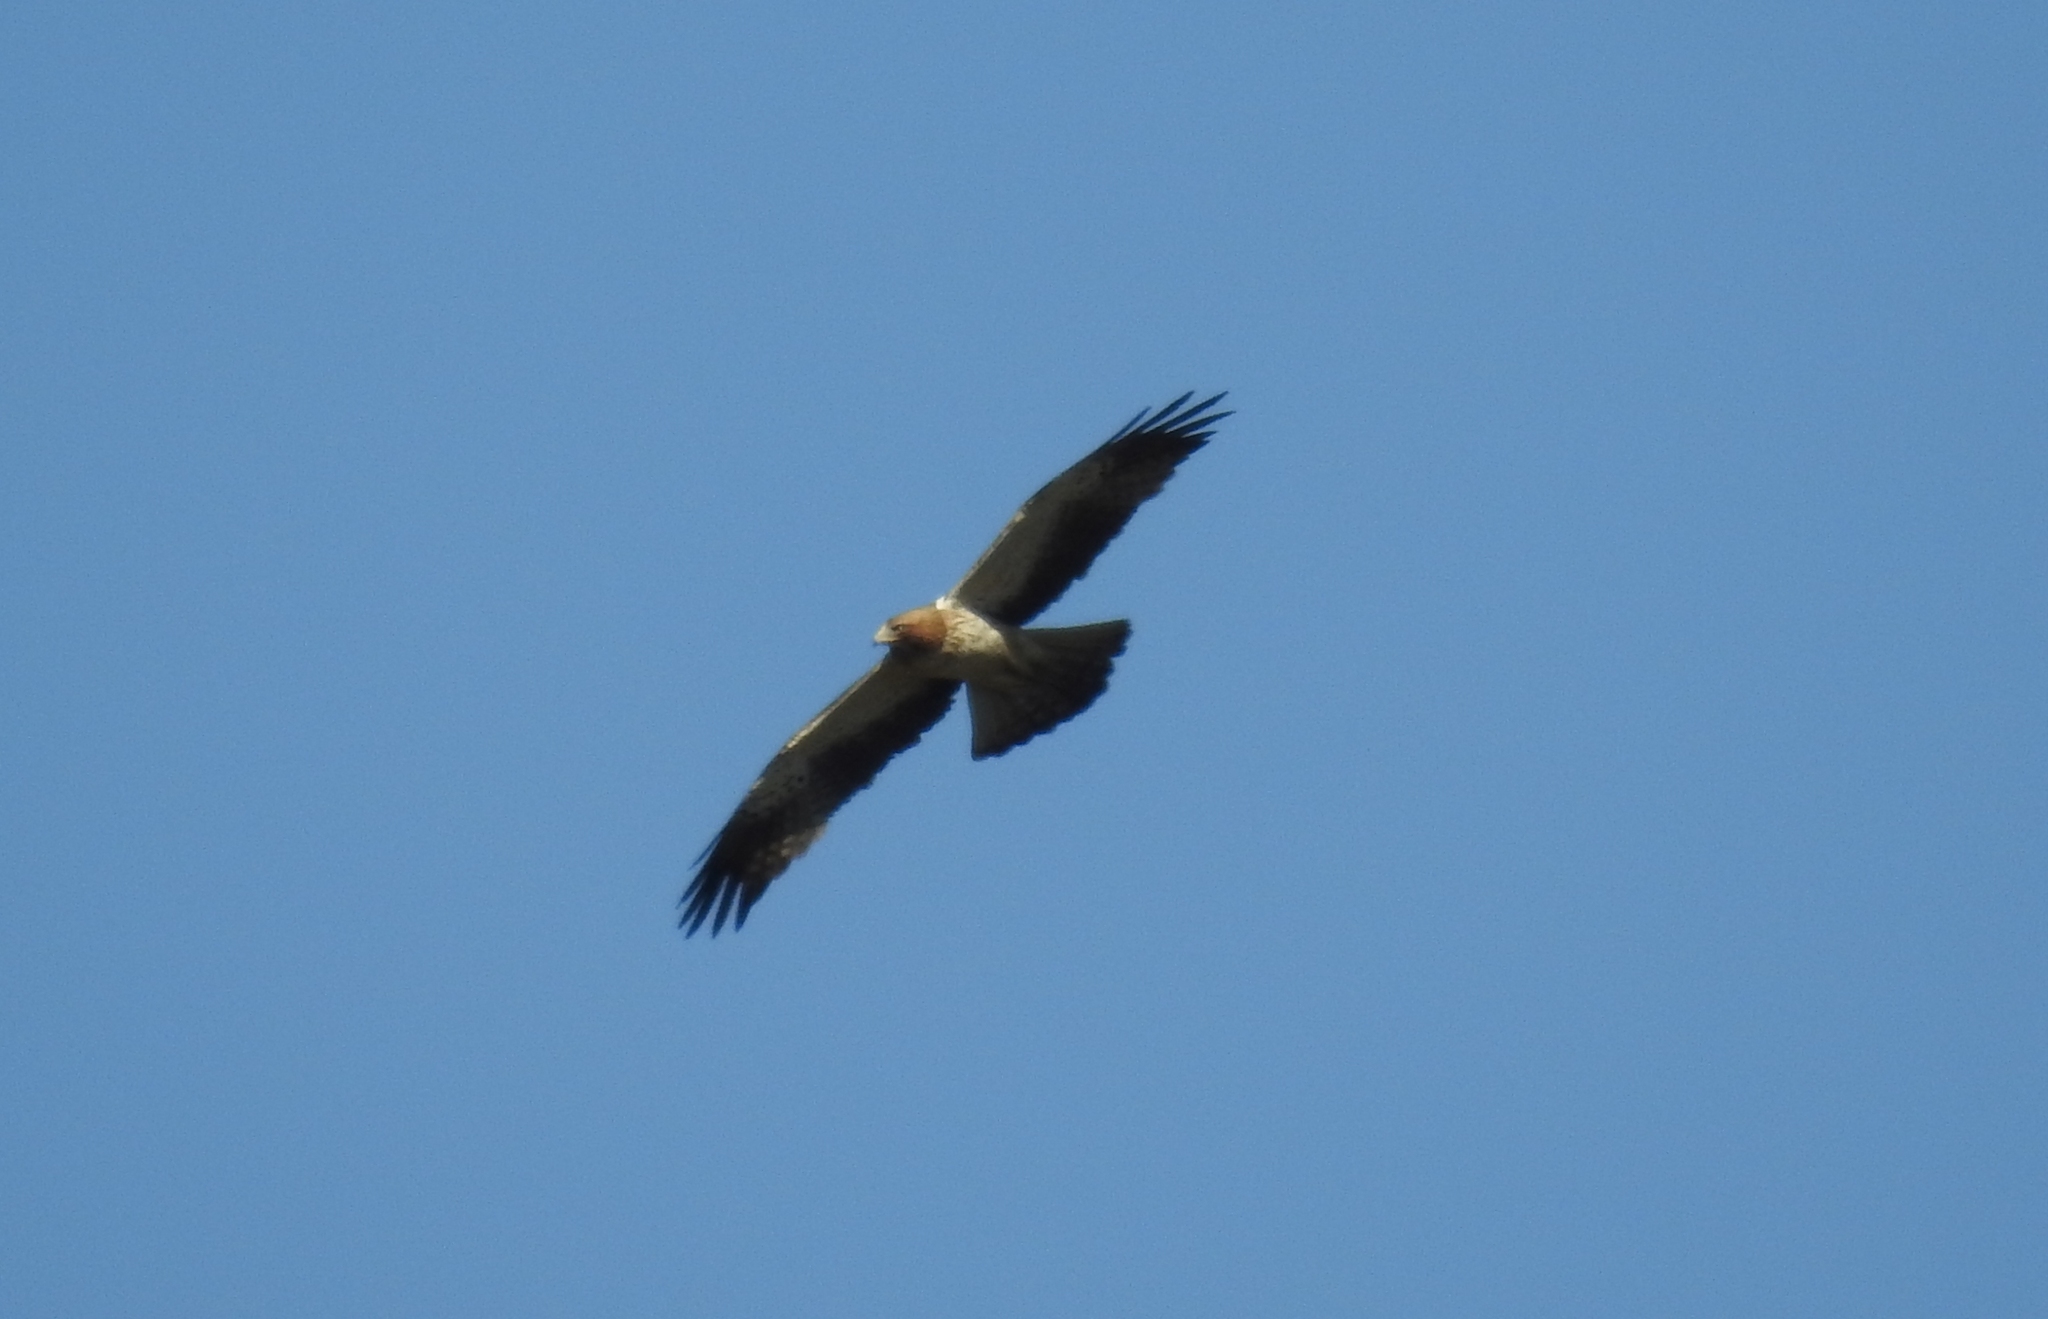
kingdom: Animalia
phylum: Chordata
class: Aves
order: Accipitriformes
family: Accipitridae
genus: Hieraaetus
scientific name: Hieraaetus pennatus
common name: Booted eagle
